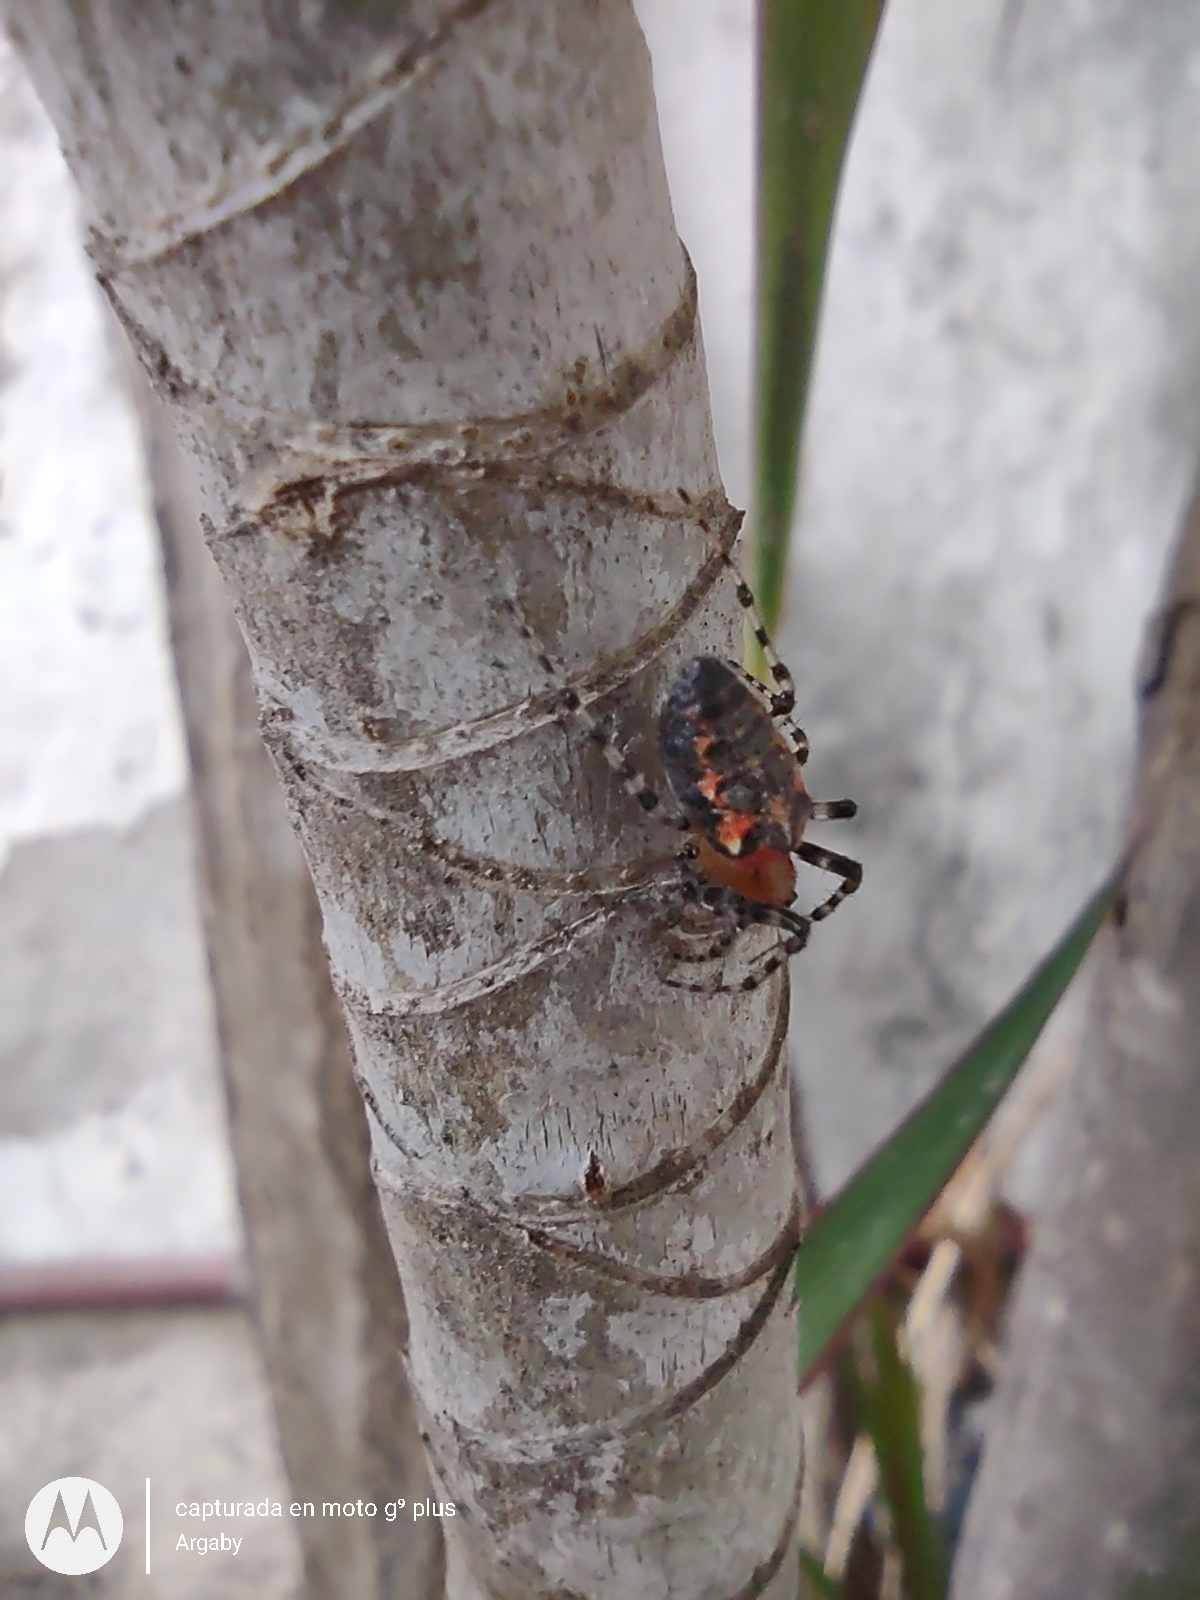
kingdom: Animalia
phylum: Arthropoda
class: Arachnida
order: Araneae
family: Araneidae
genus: Alpaida
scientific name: Alpaida gallardoi
